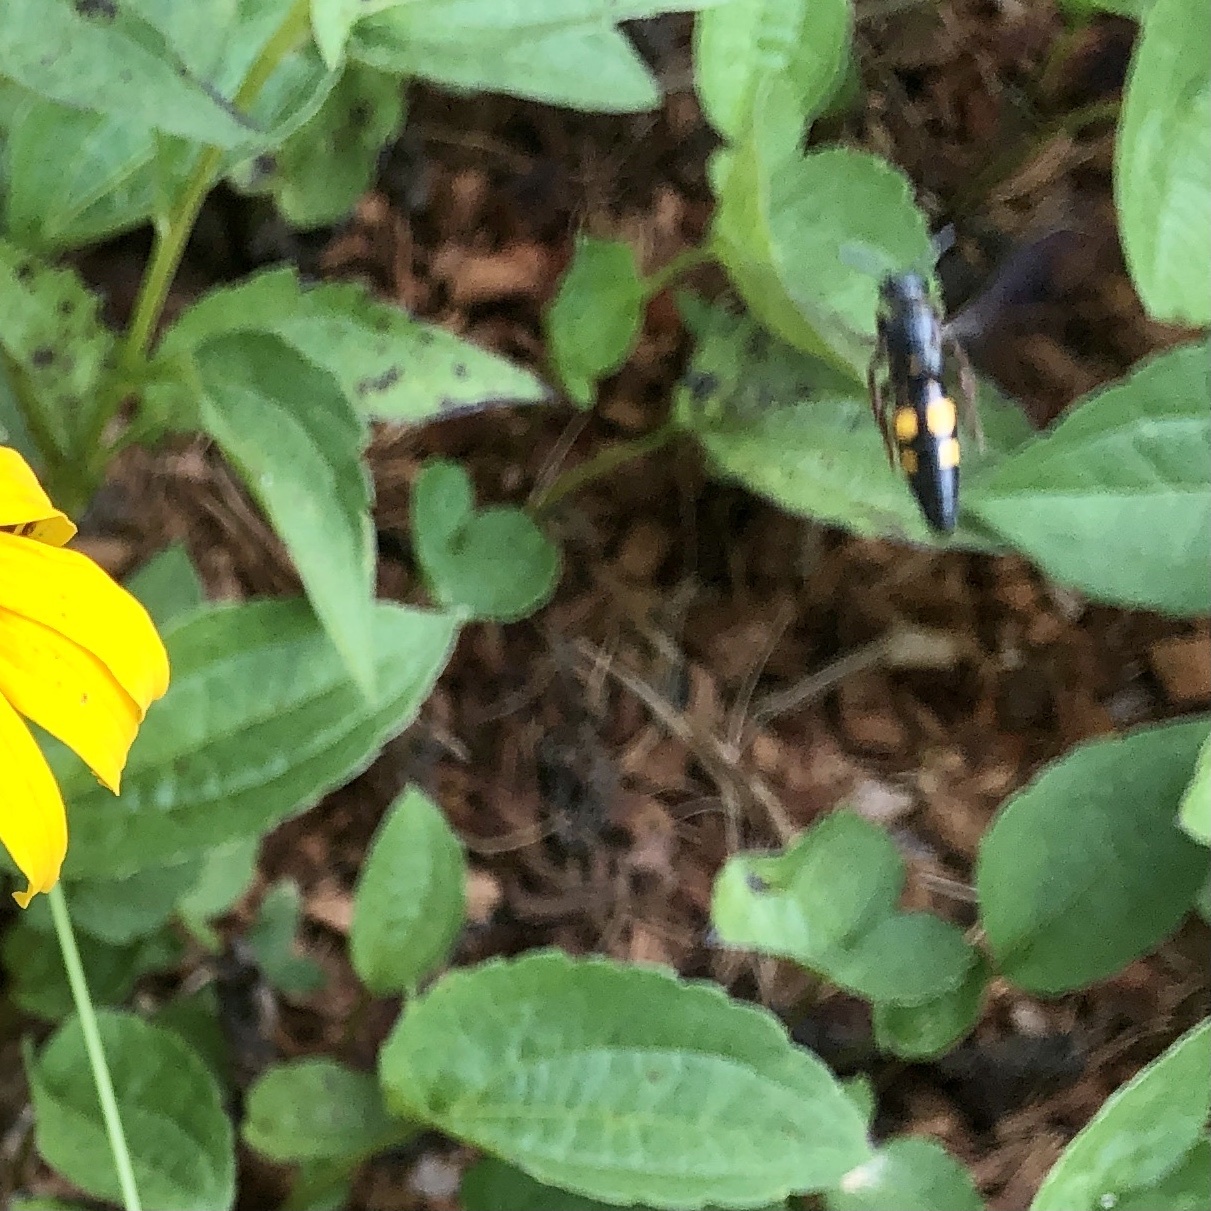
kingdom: Animalia
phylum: Arthropoda
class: Insecta
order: Hymenoptera
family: Scoliidae
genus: Scolia
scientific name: Scolia nobilitata
